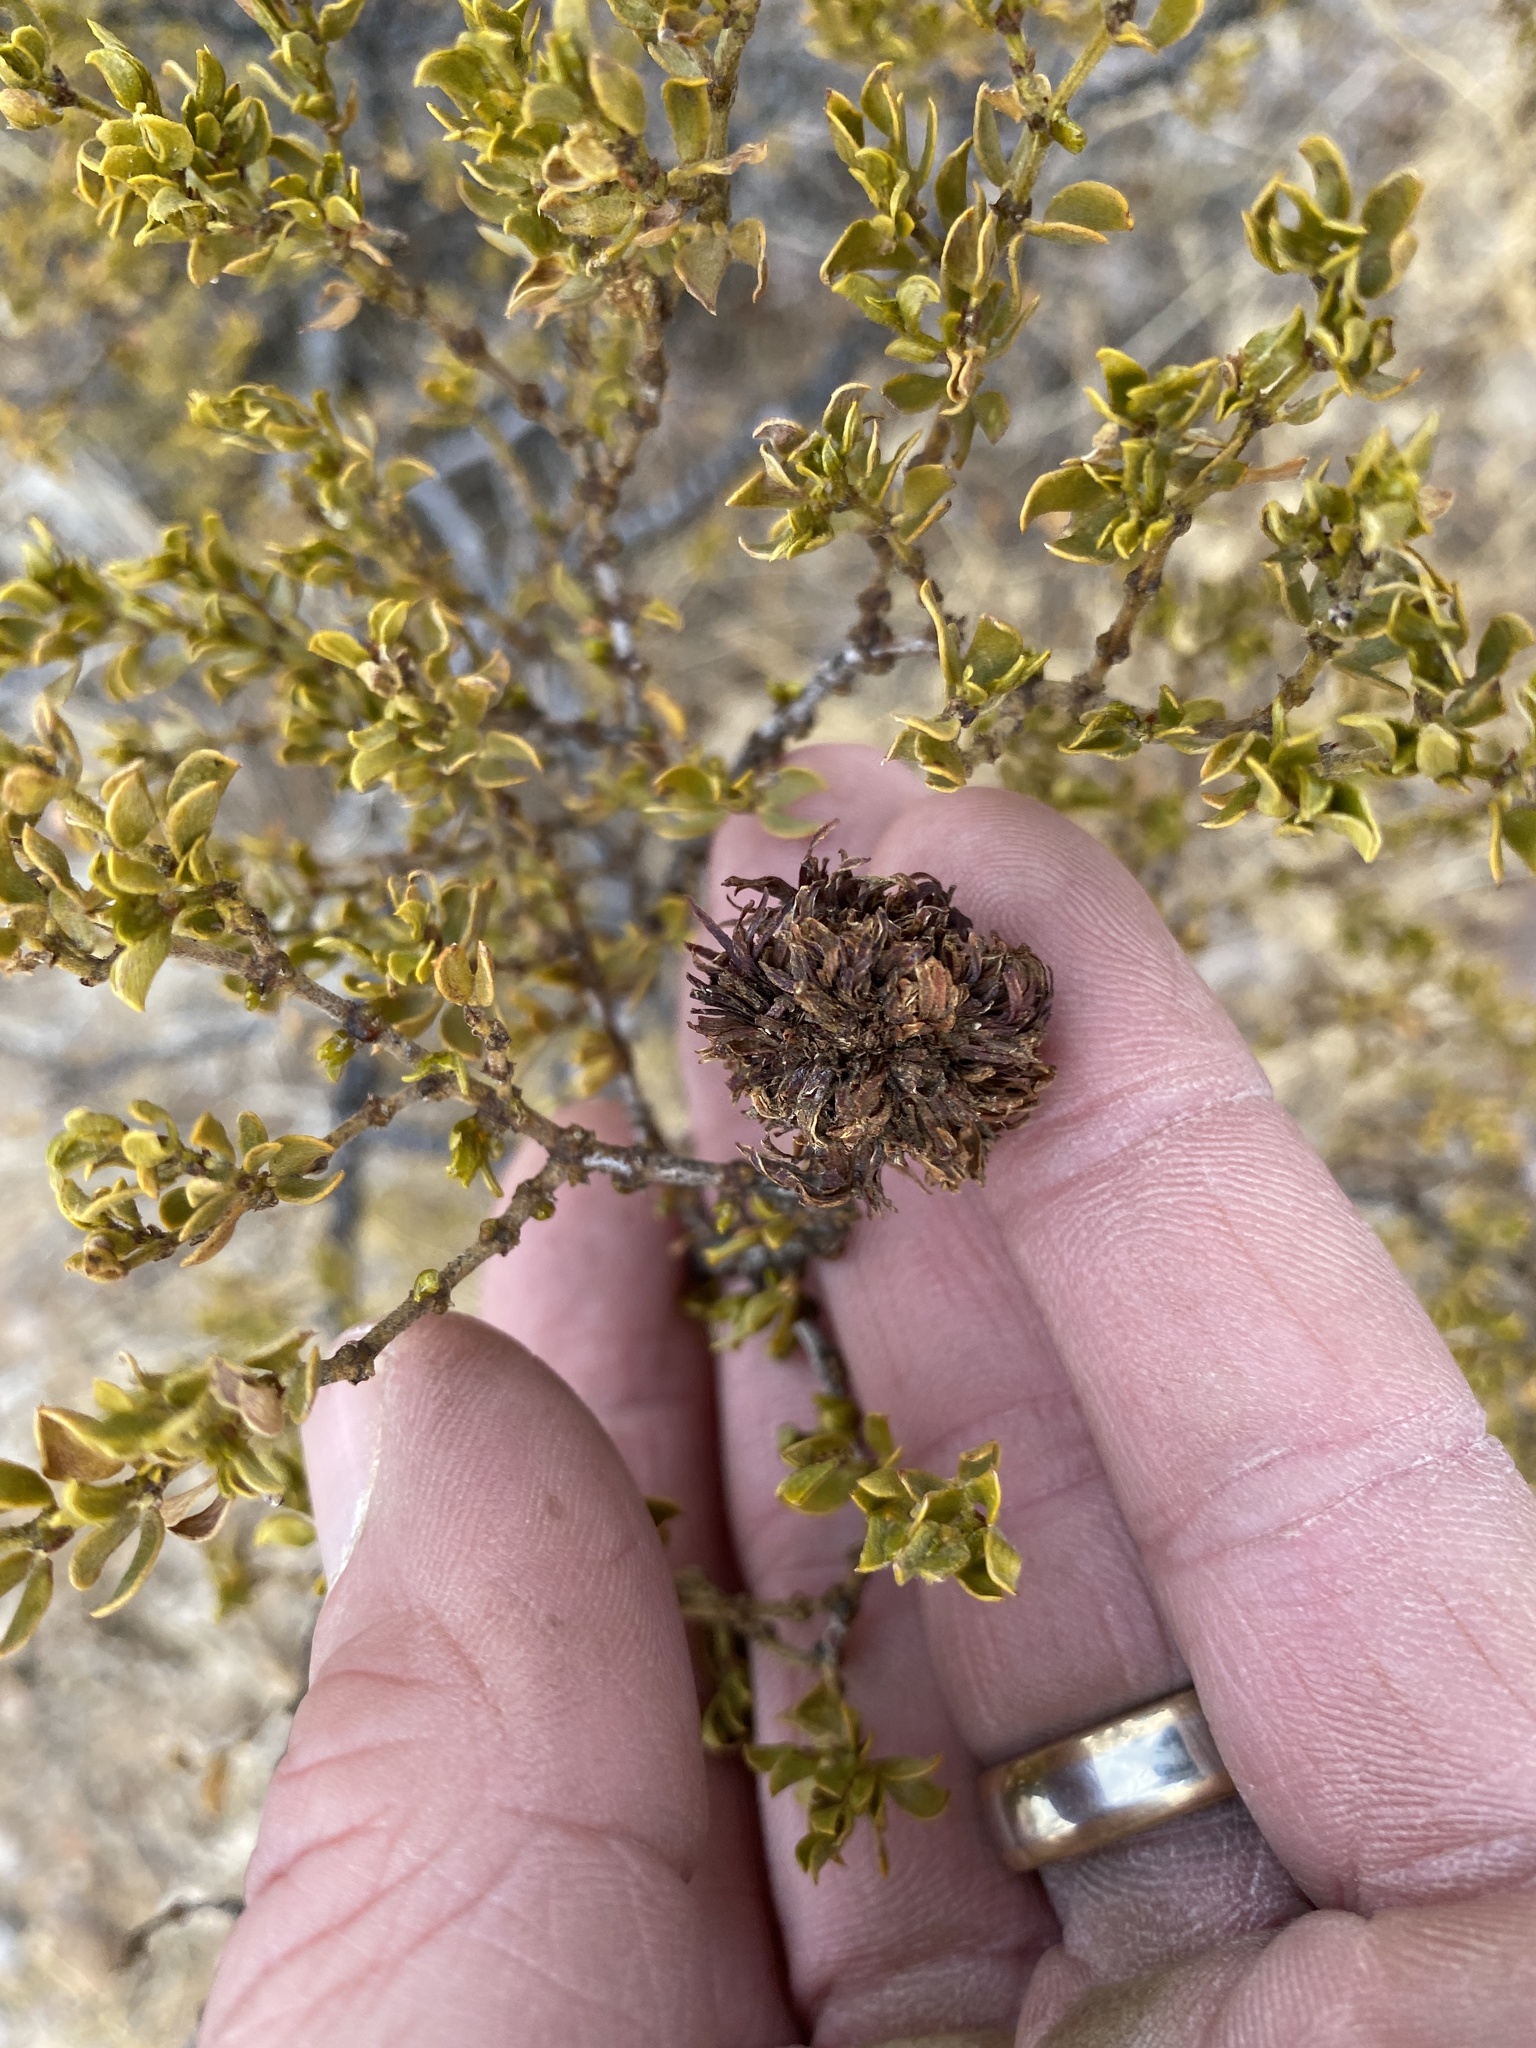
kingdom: Animalia
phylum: Arthropoda
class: Insecta
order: Diptera
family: Cecidomyiidae
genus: Asphondylia
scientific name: Asphondylia auripila
